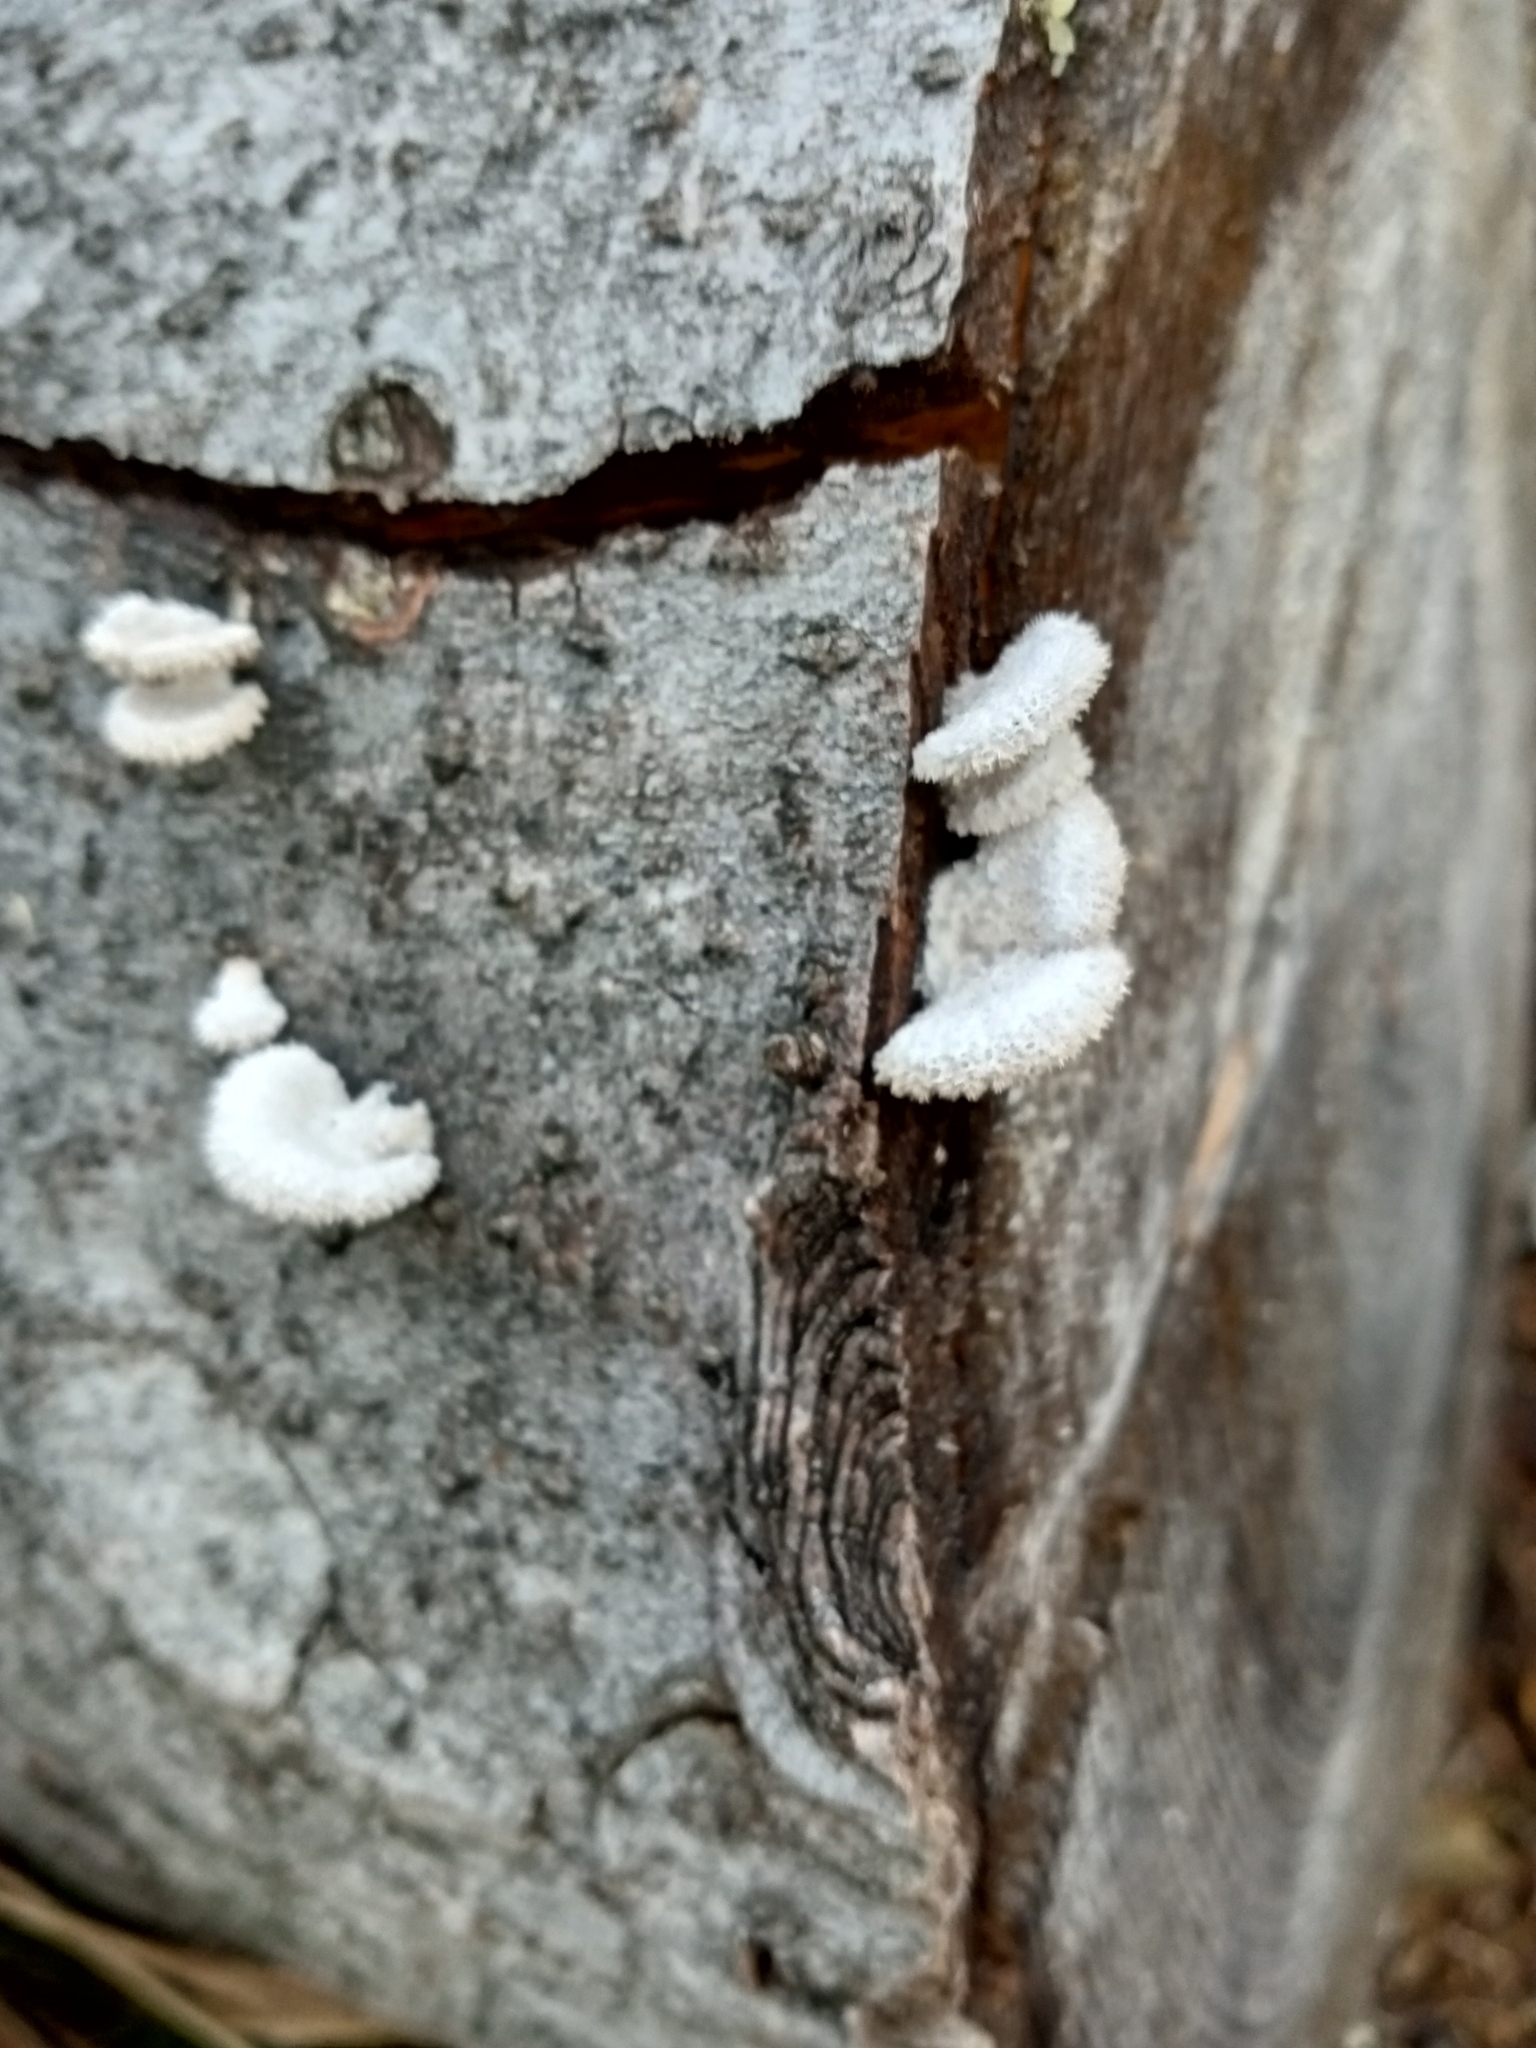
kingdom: Fungi
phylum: Basidiomycota
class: Agaricomycetes
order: Agaricales
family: Schizophyllaceae
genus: Schizophyllum
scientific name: Schizophyllum commune
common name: Common porecrust
